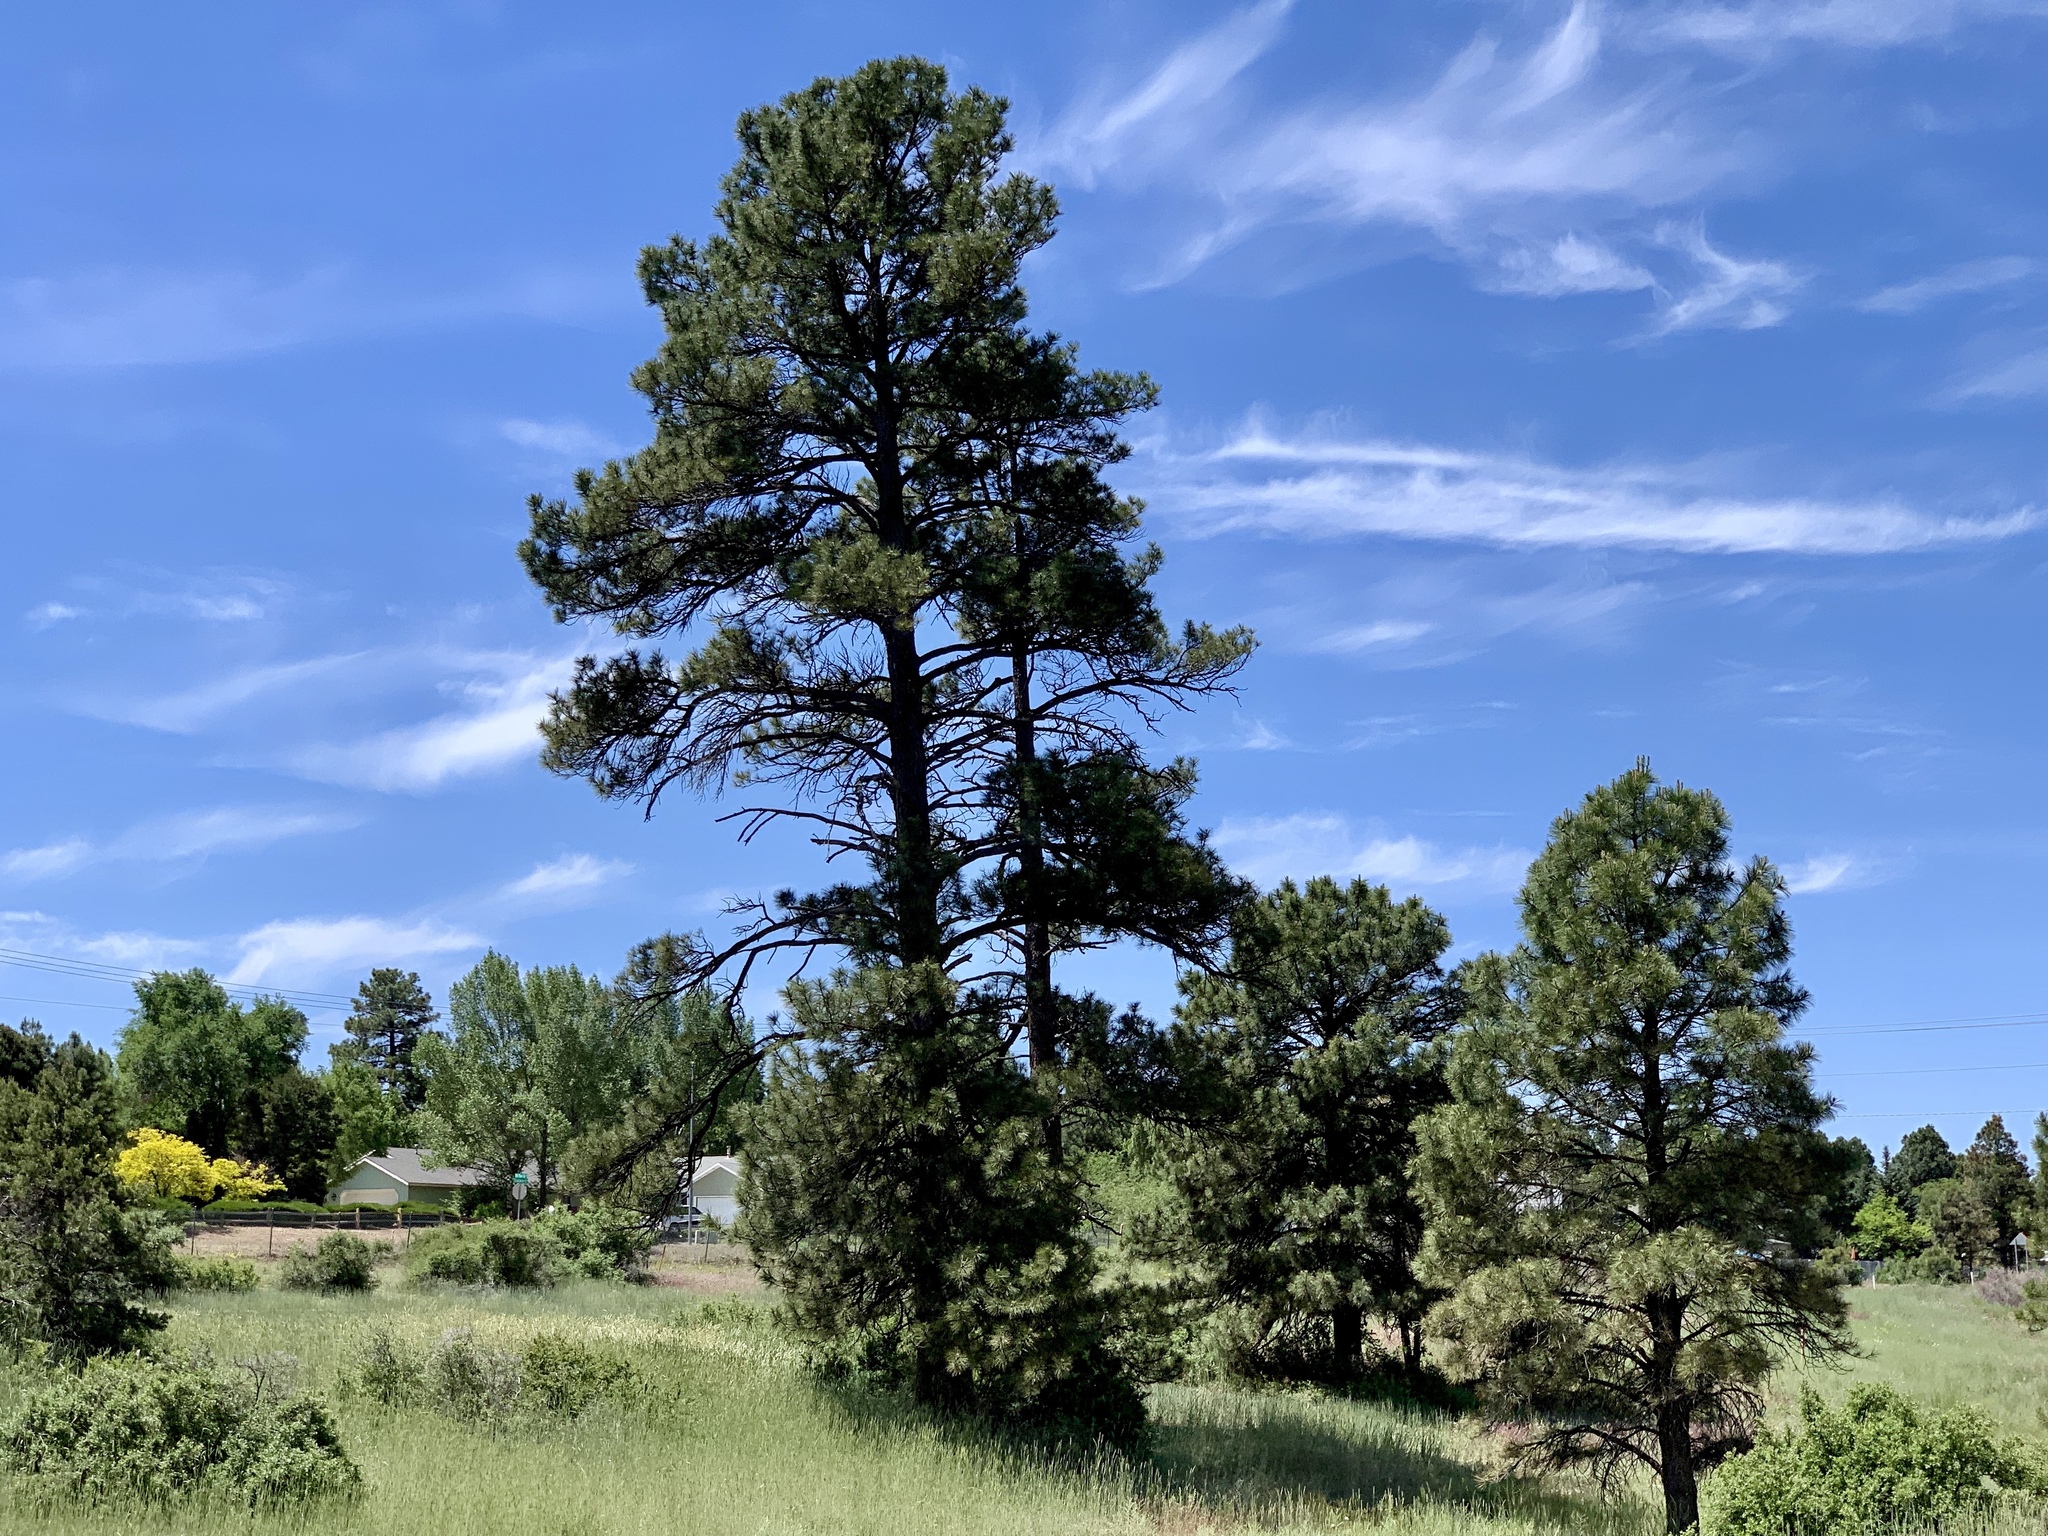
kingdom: Plantae
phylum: Tracheophyta
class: Pinopsida
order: Pinales
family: Pinaceae
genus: Pinus
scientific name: Pinus ponderosa
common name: Western yellow-pine
